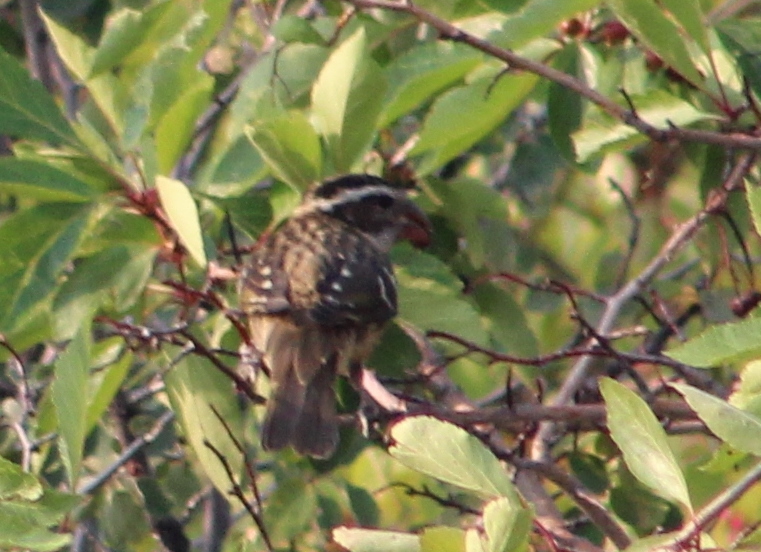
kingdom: Animalia
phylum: Chordata
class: Aves
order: Passeriformes
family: Cardinalidae
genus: Pheucticus
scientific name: Pheucticus melanocephalus
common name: Black-headed grosbeak
